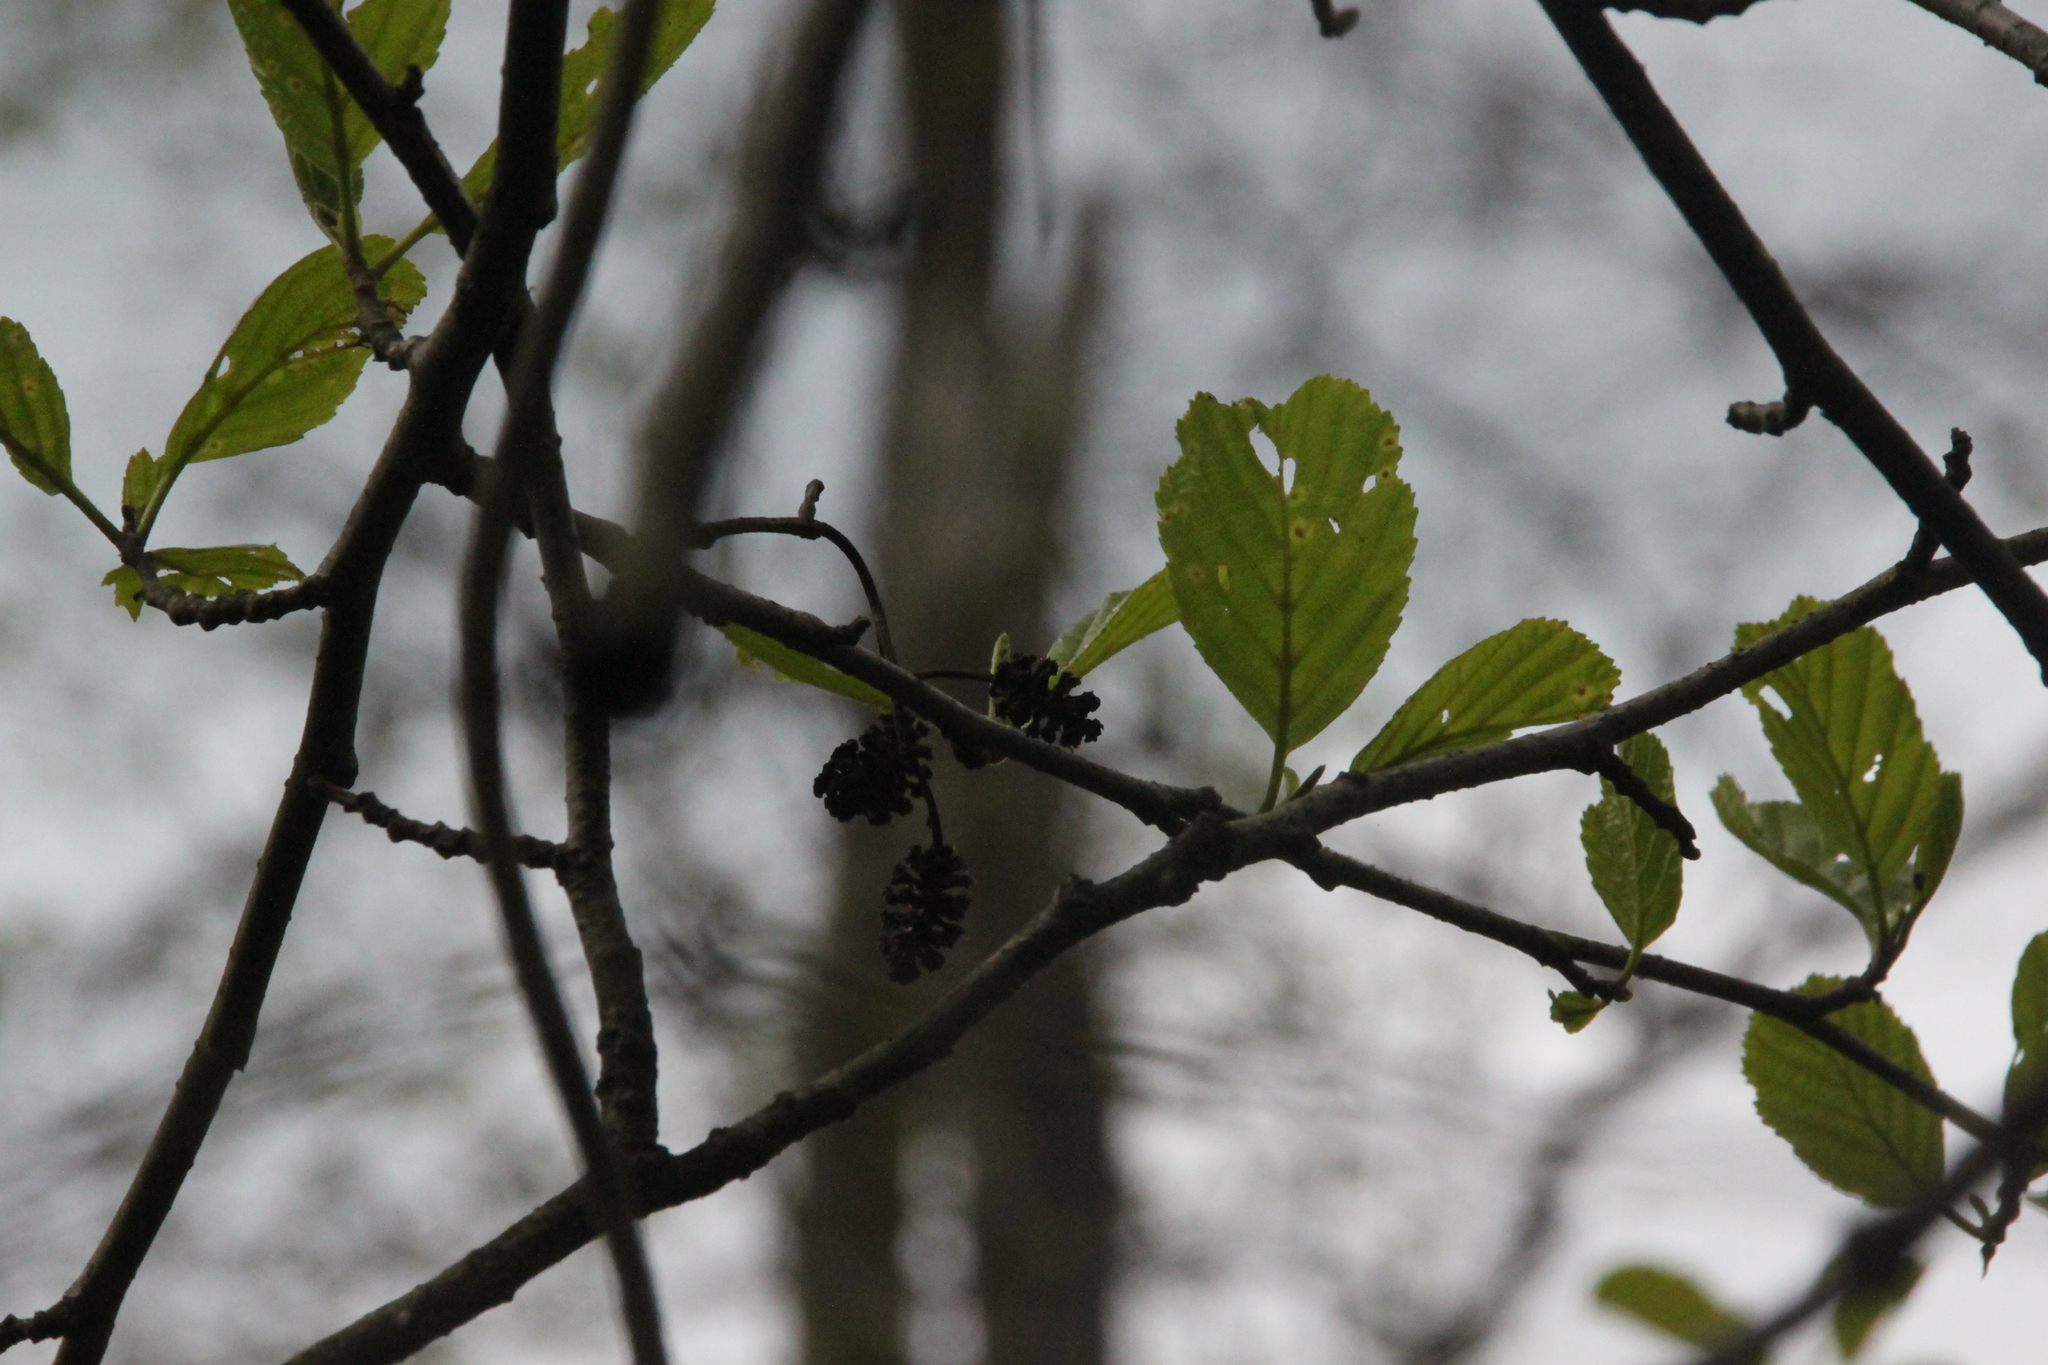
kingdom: Plantae
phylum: Tracheophyta
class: Magnoliopsida
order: Fagales
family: Betulaceae
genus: Alnus
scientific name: Alnus glutinosa
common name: Black alder
